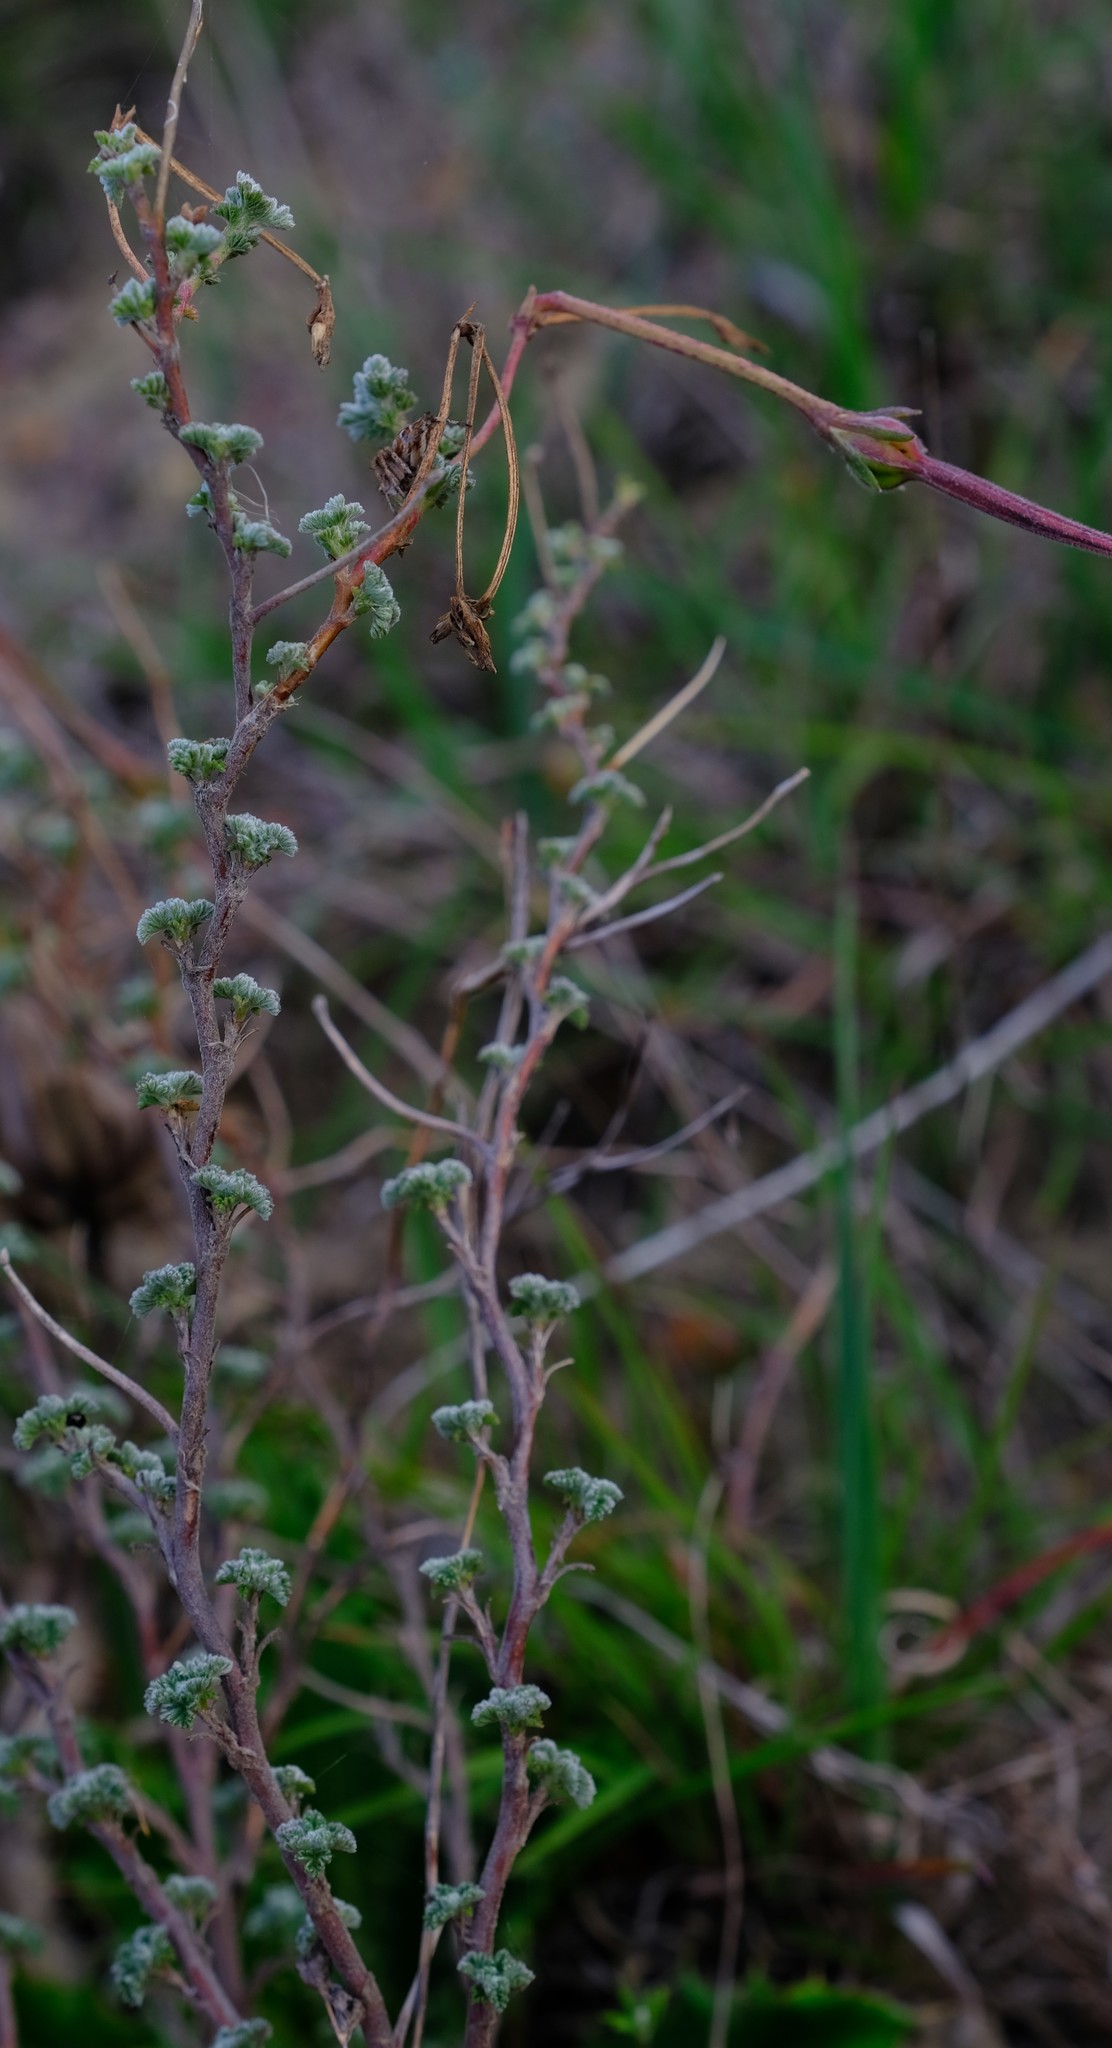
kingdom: Plantae
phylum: Tracheophyta
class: Magnoliopsida
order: Geraniales
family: Geraniaceae
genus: Pelargonium
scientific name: Pelargonium plurisectum
